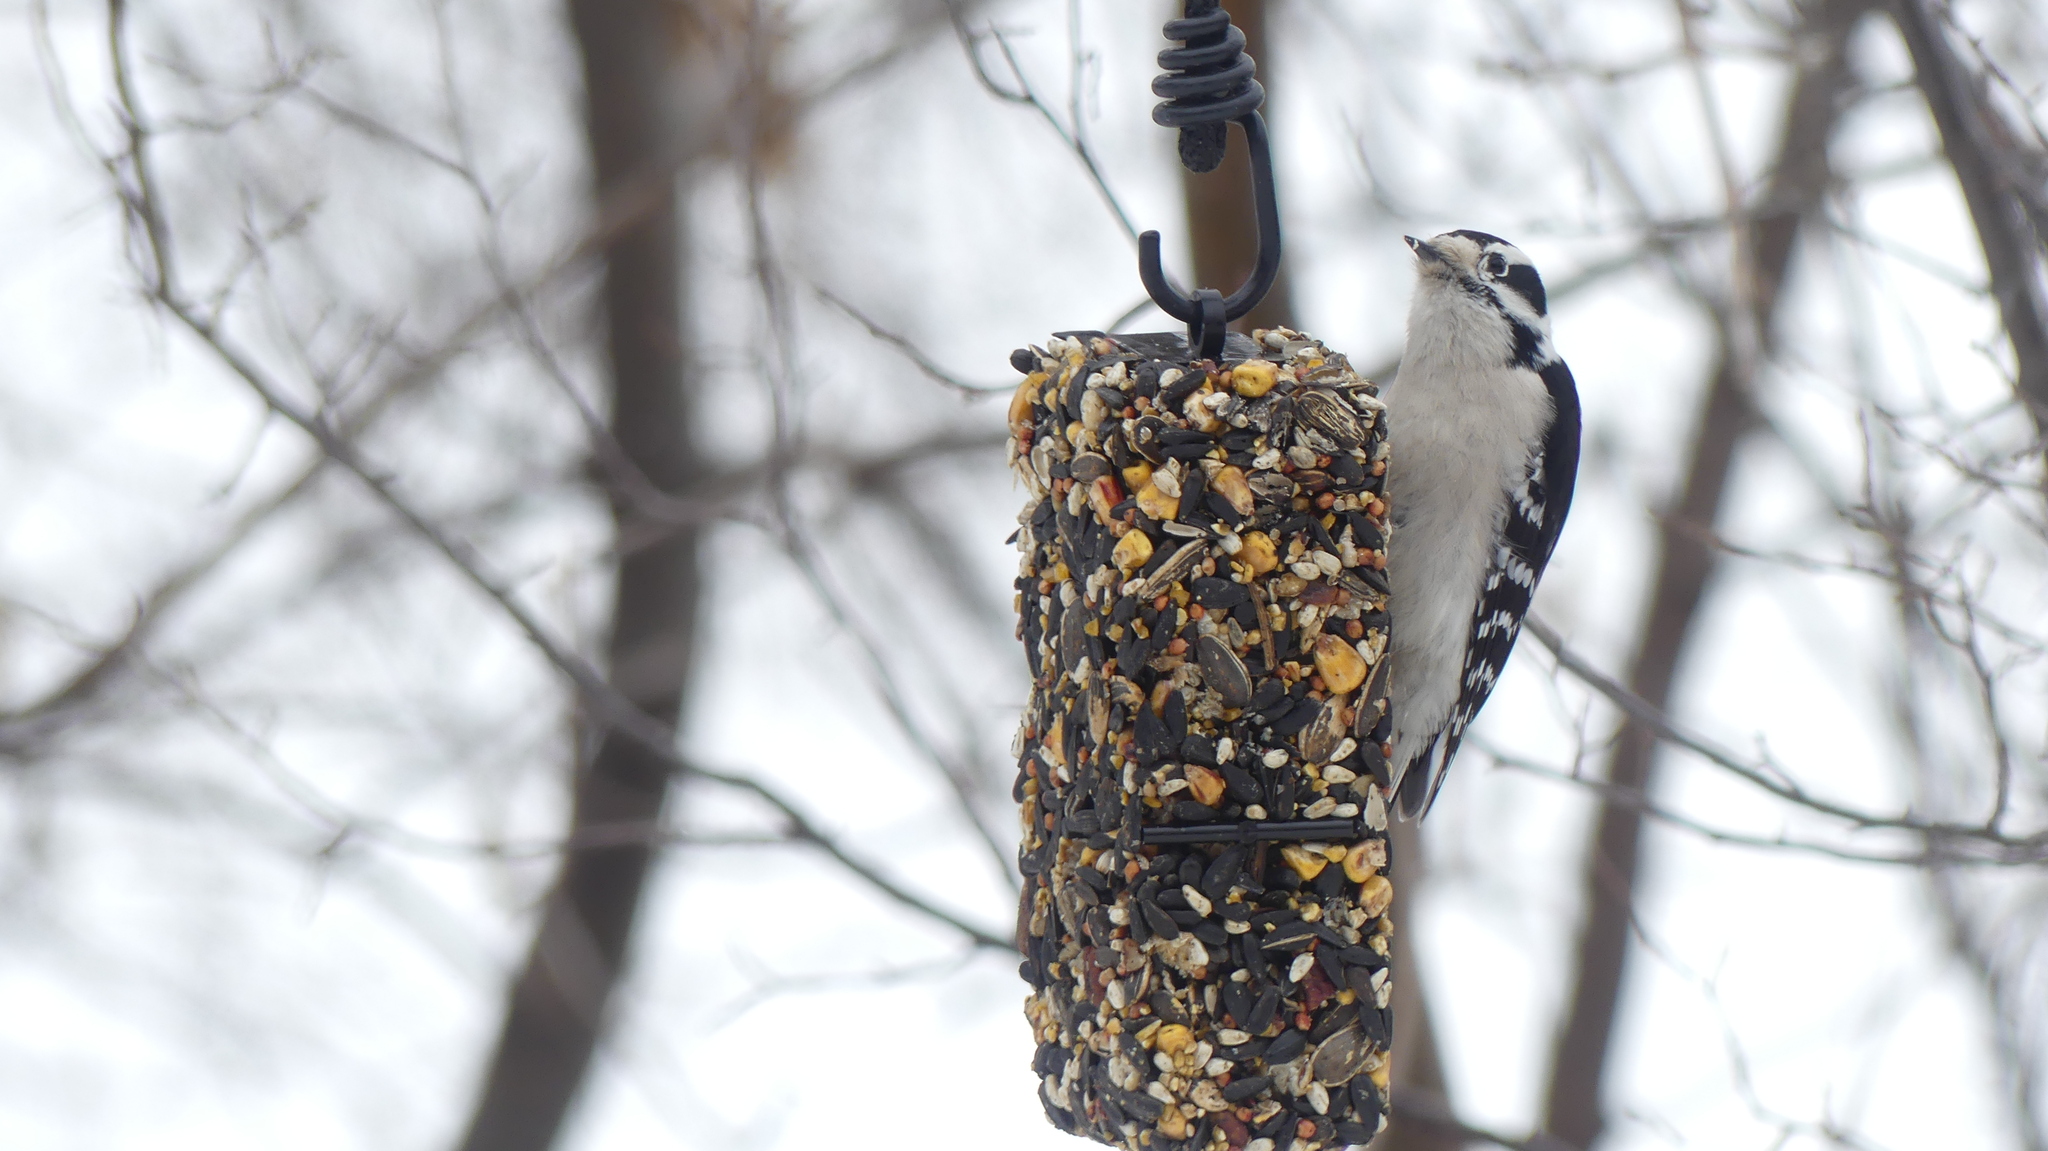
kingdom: Animalia
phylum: Chordata
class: Aves
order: Piciformes
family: Picidae
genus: Dryobates
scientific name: Dryobates pubescens
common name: Downy woodpecker
